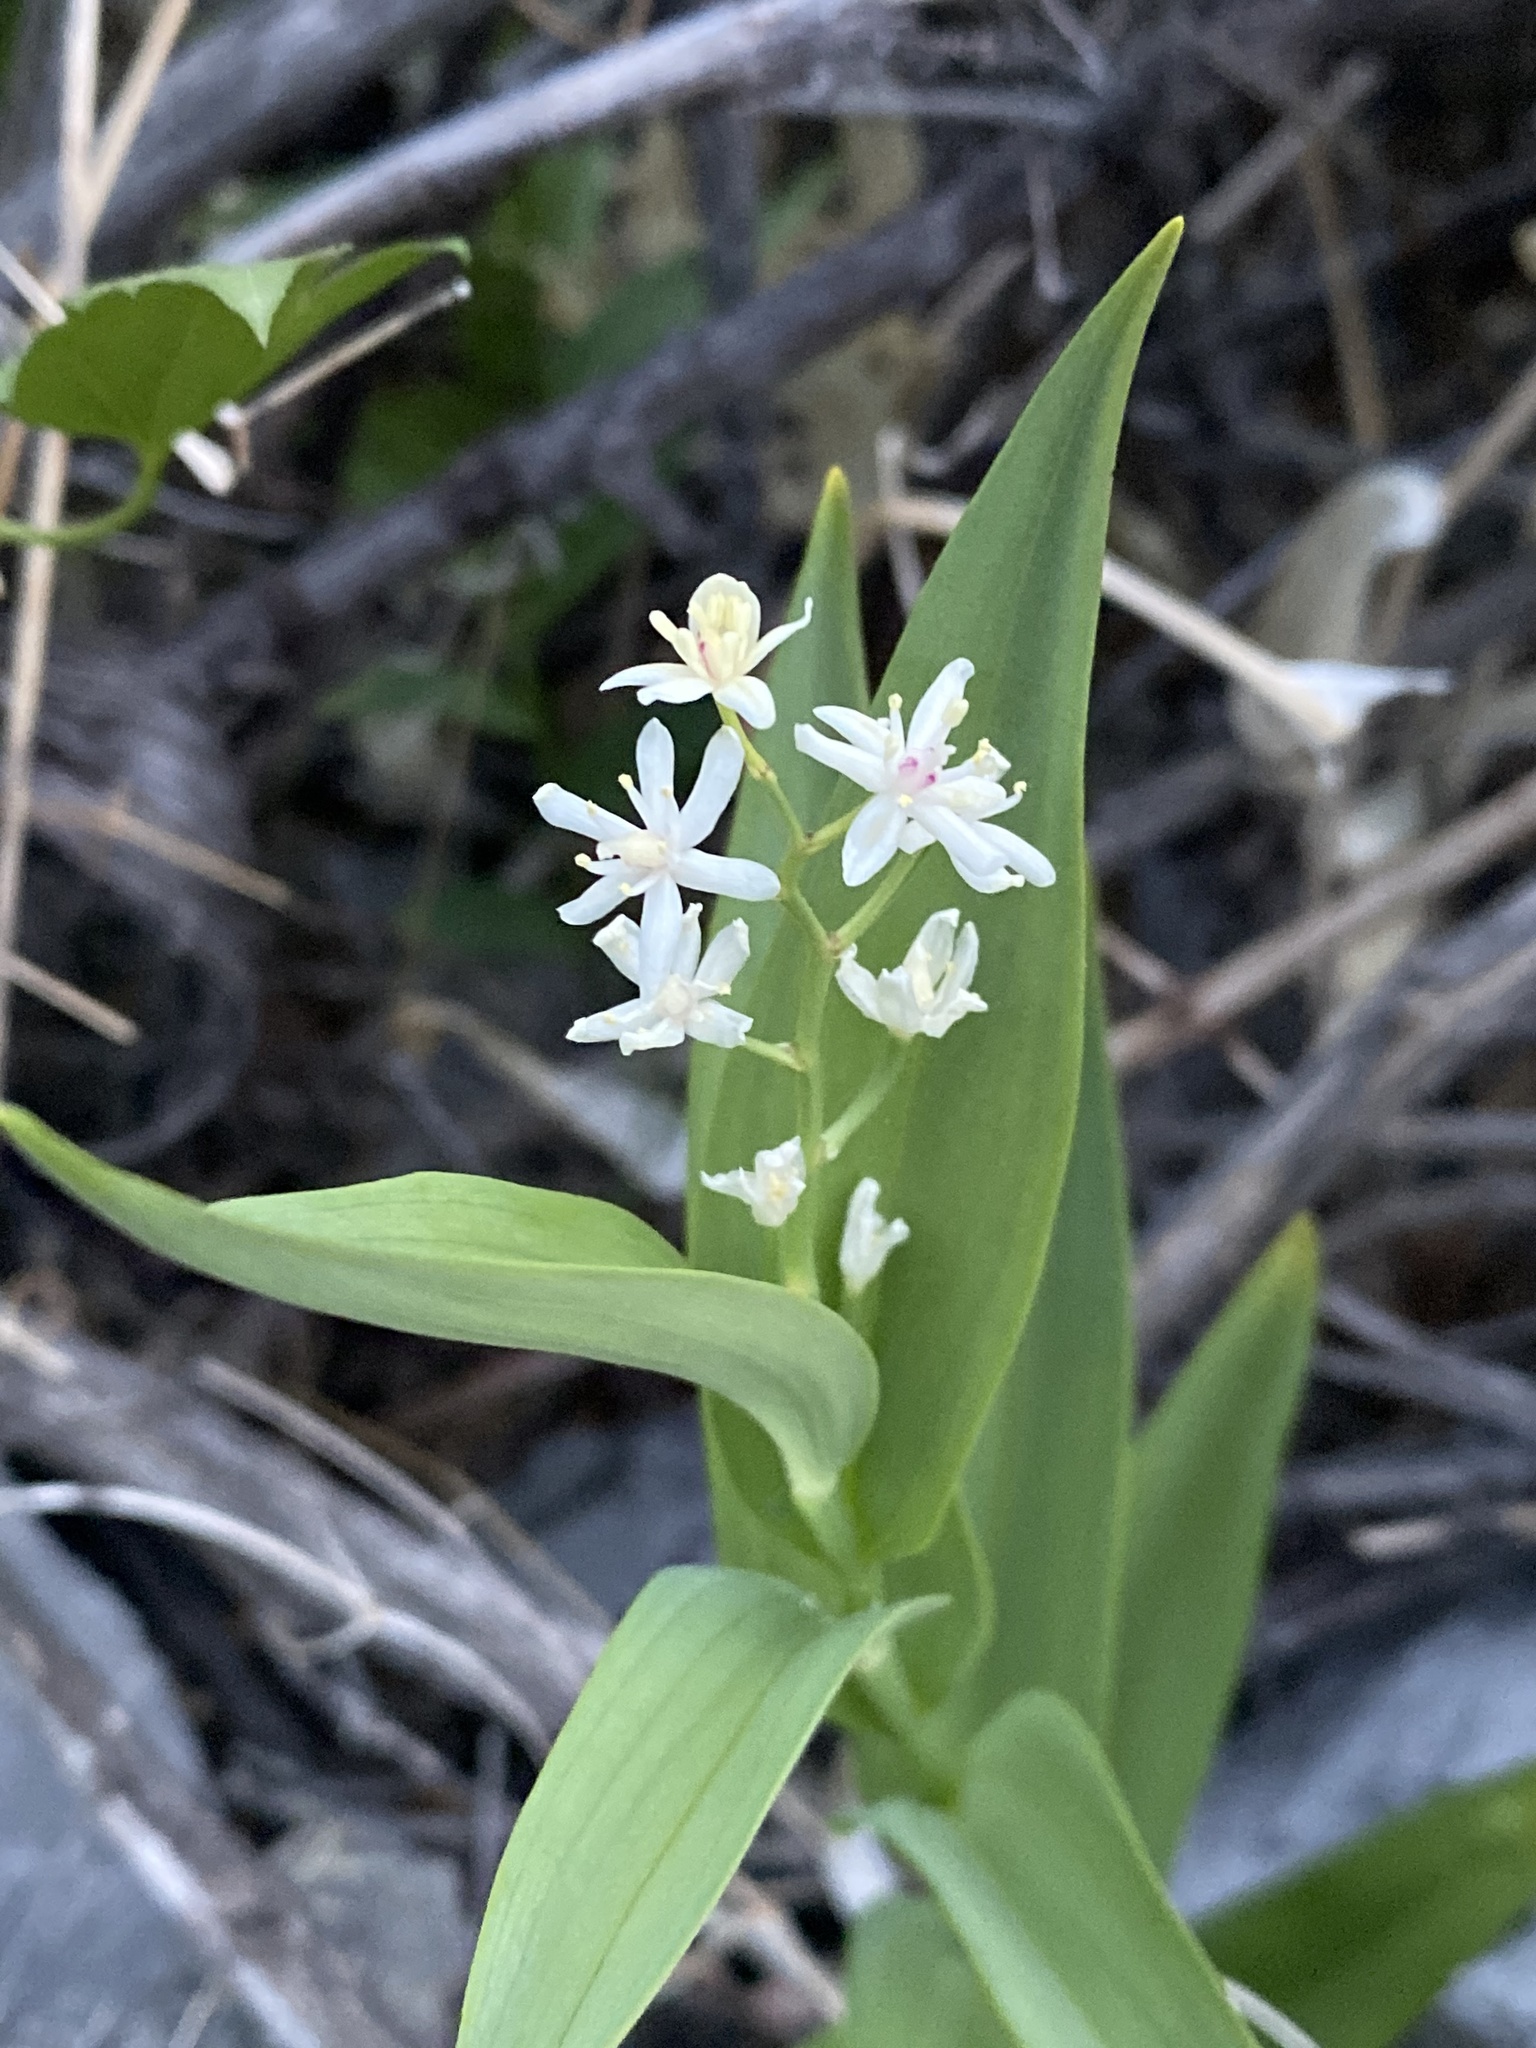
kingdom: Plantae
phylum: Tracheophyta
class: Liliopsida
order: Asparagales
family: Asparagaceae
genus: Maianthemum
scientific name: Maianthemum stellatum
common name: Little false solomon's seal
